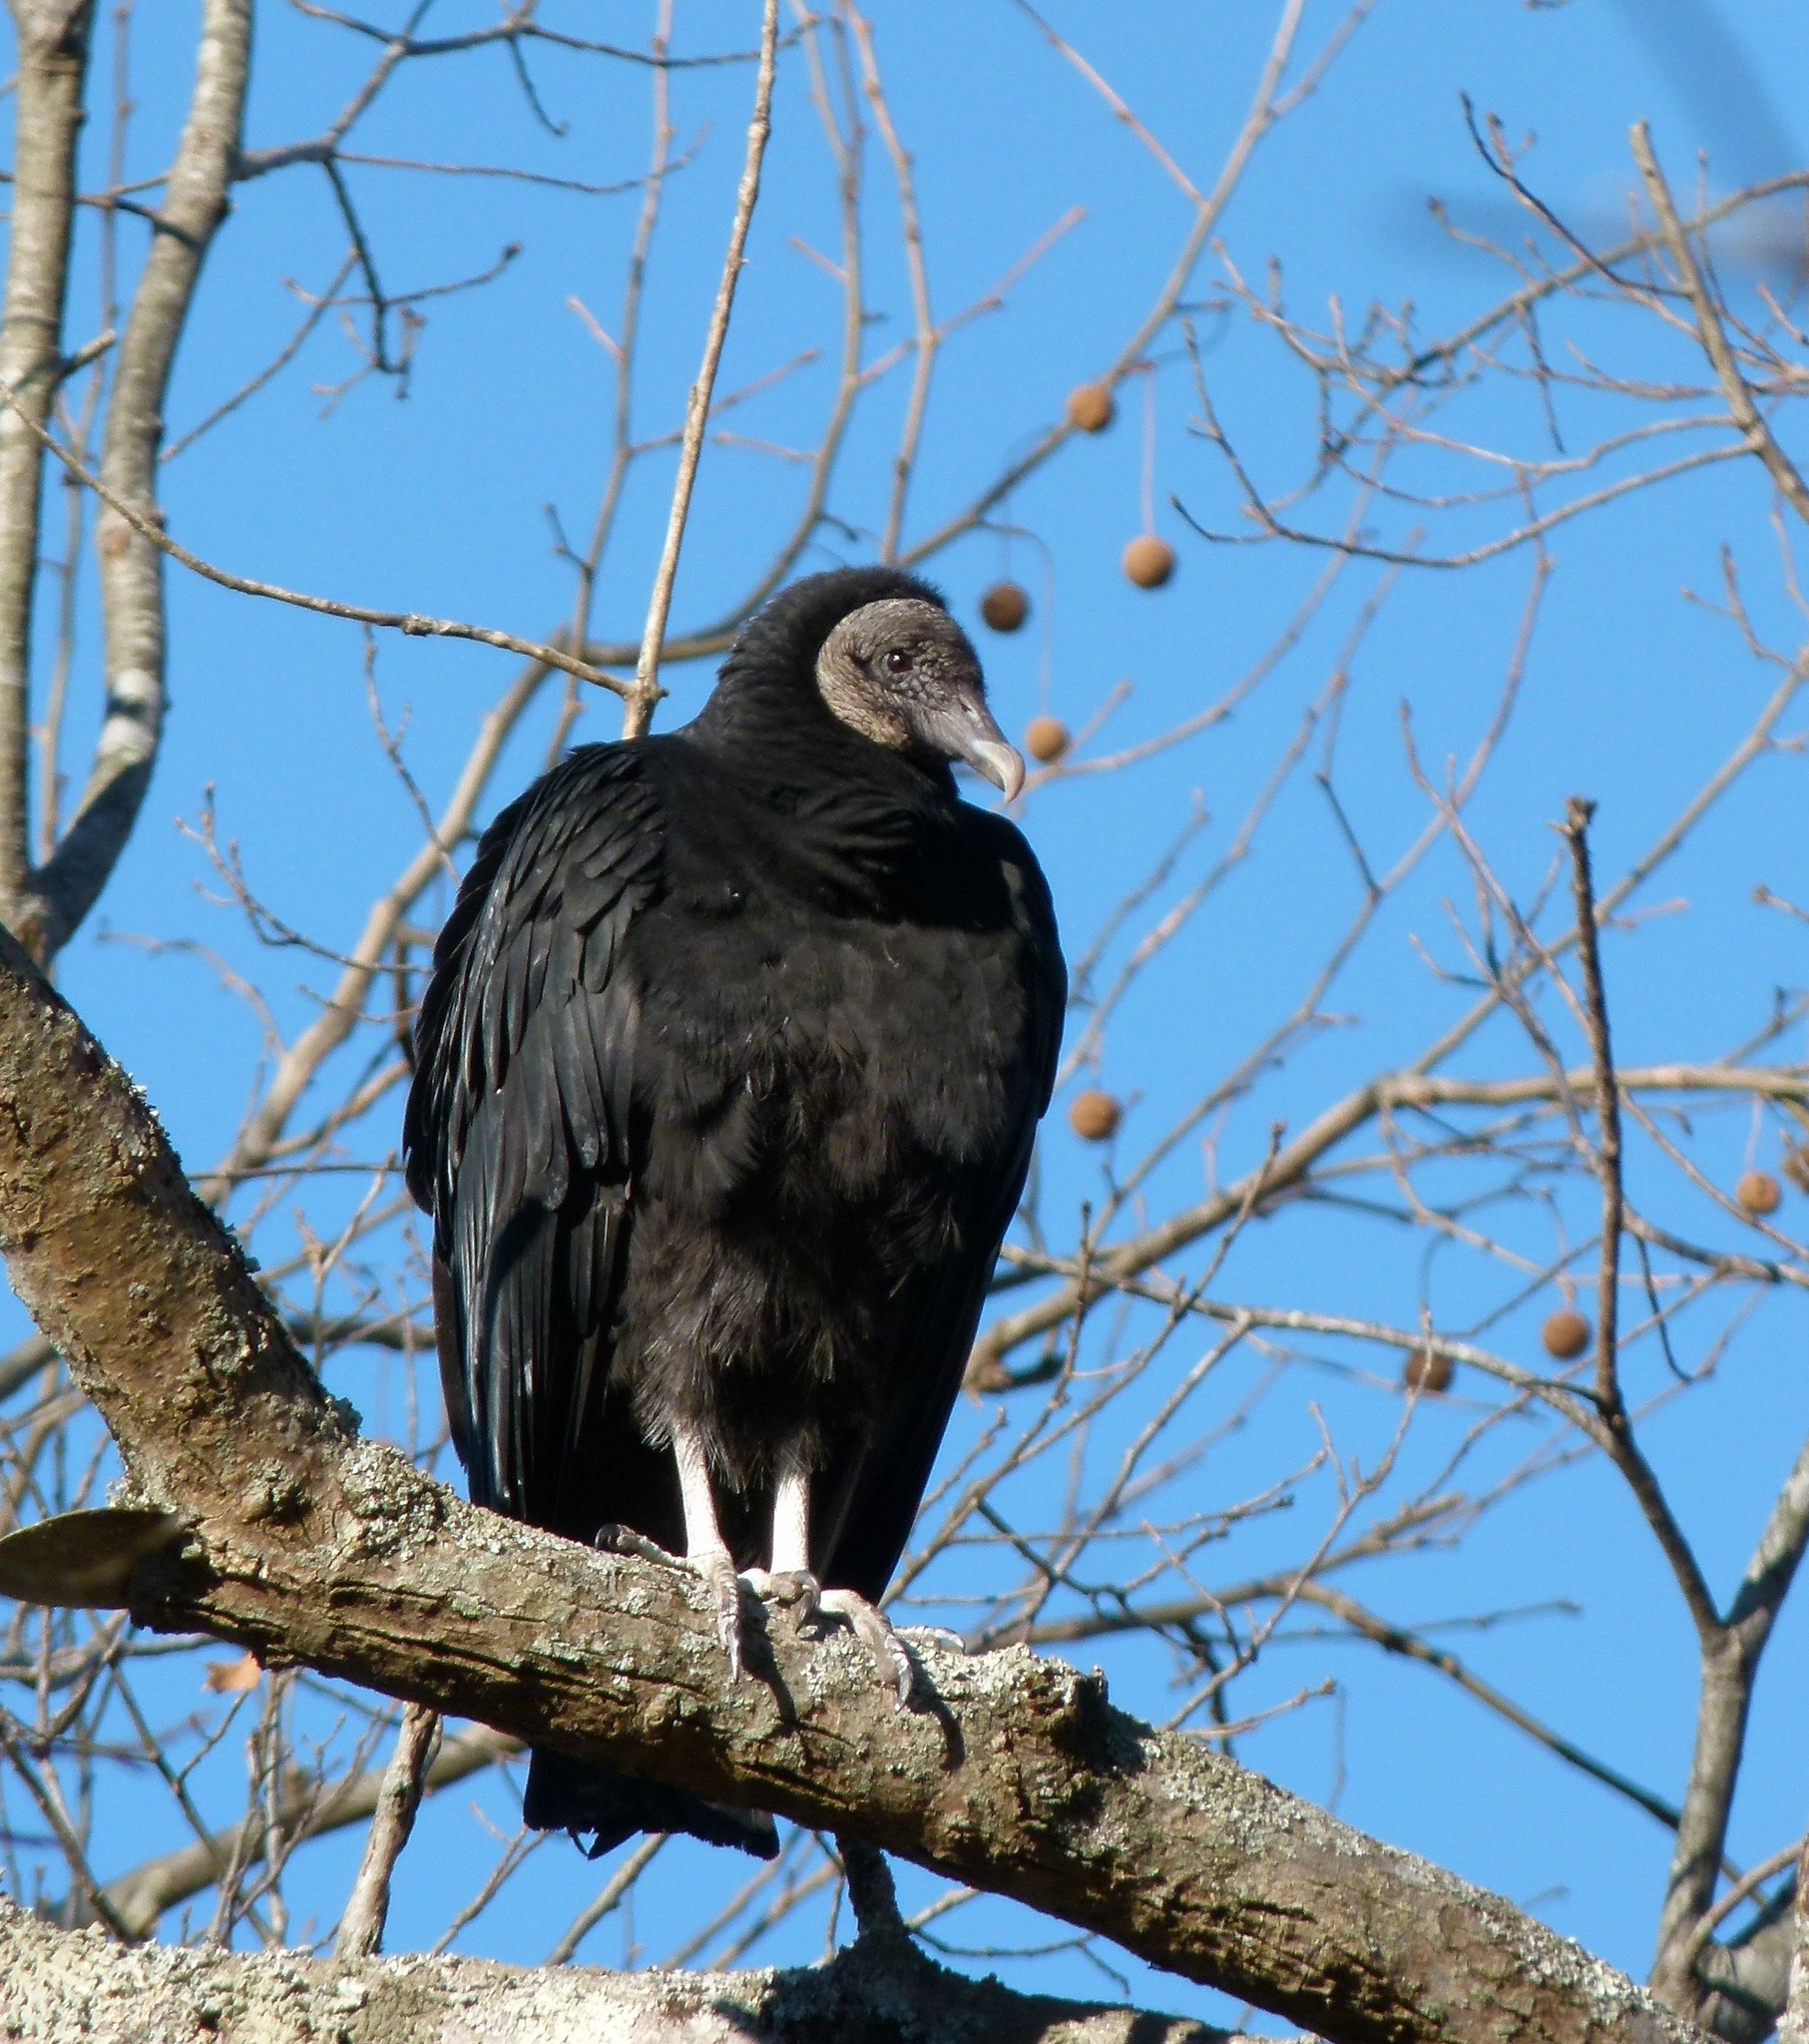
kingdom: Animalia
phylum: Chordata
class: Aves
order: Accipitriformes
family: Cathartidae
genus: Coragyps
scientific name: Coragyps atratus
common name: Black vulture
